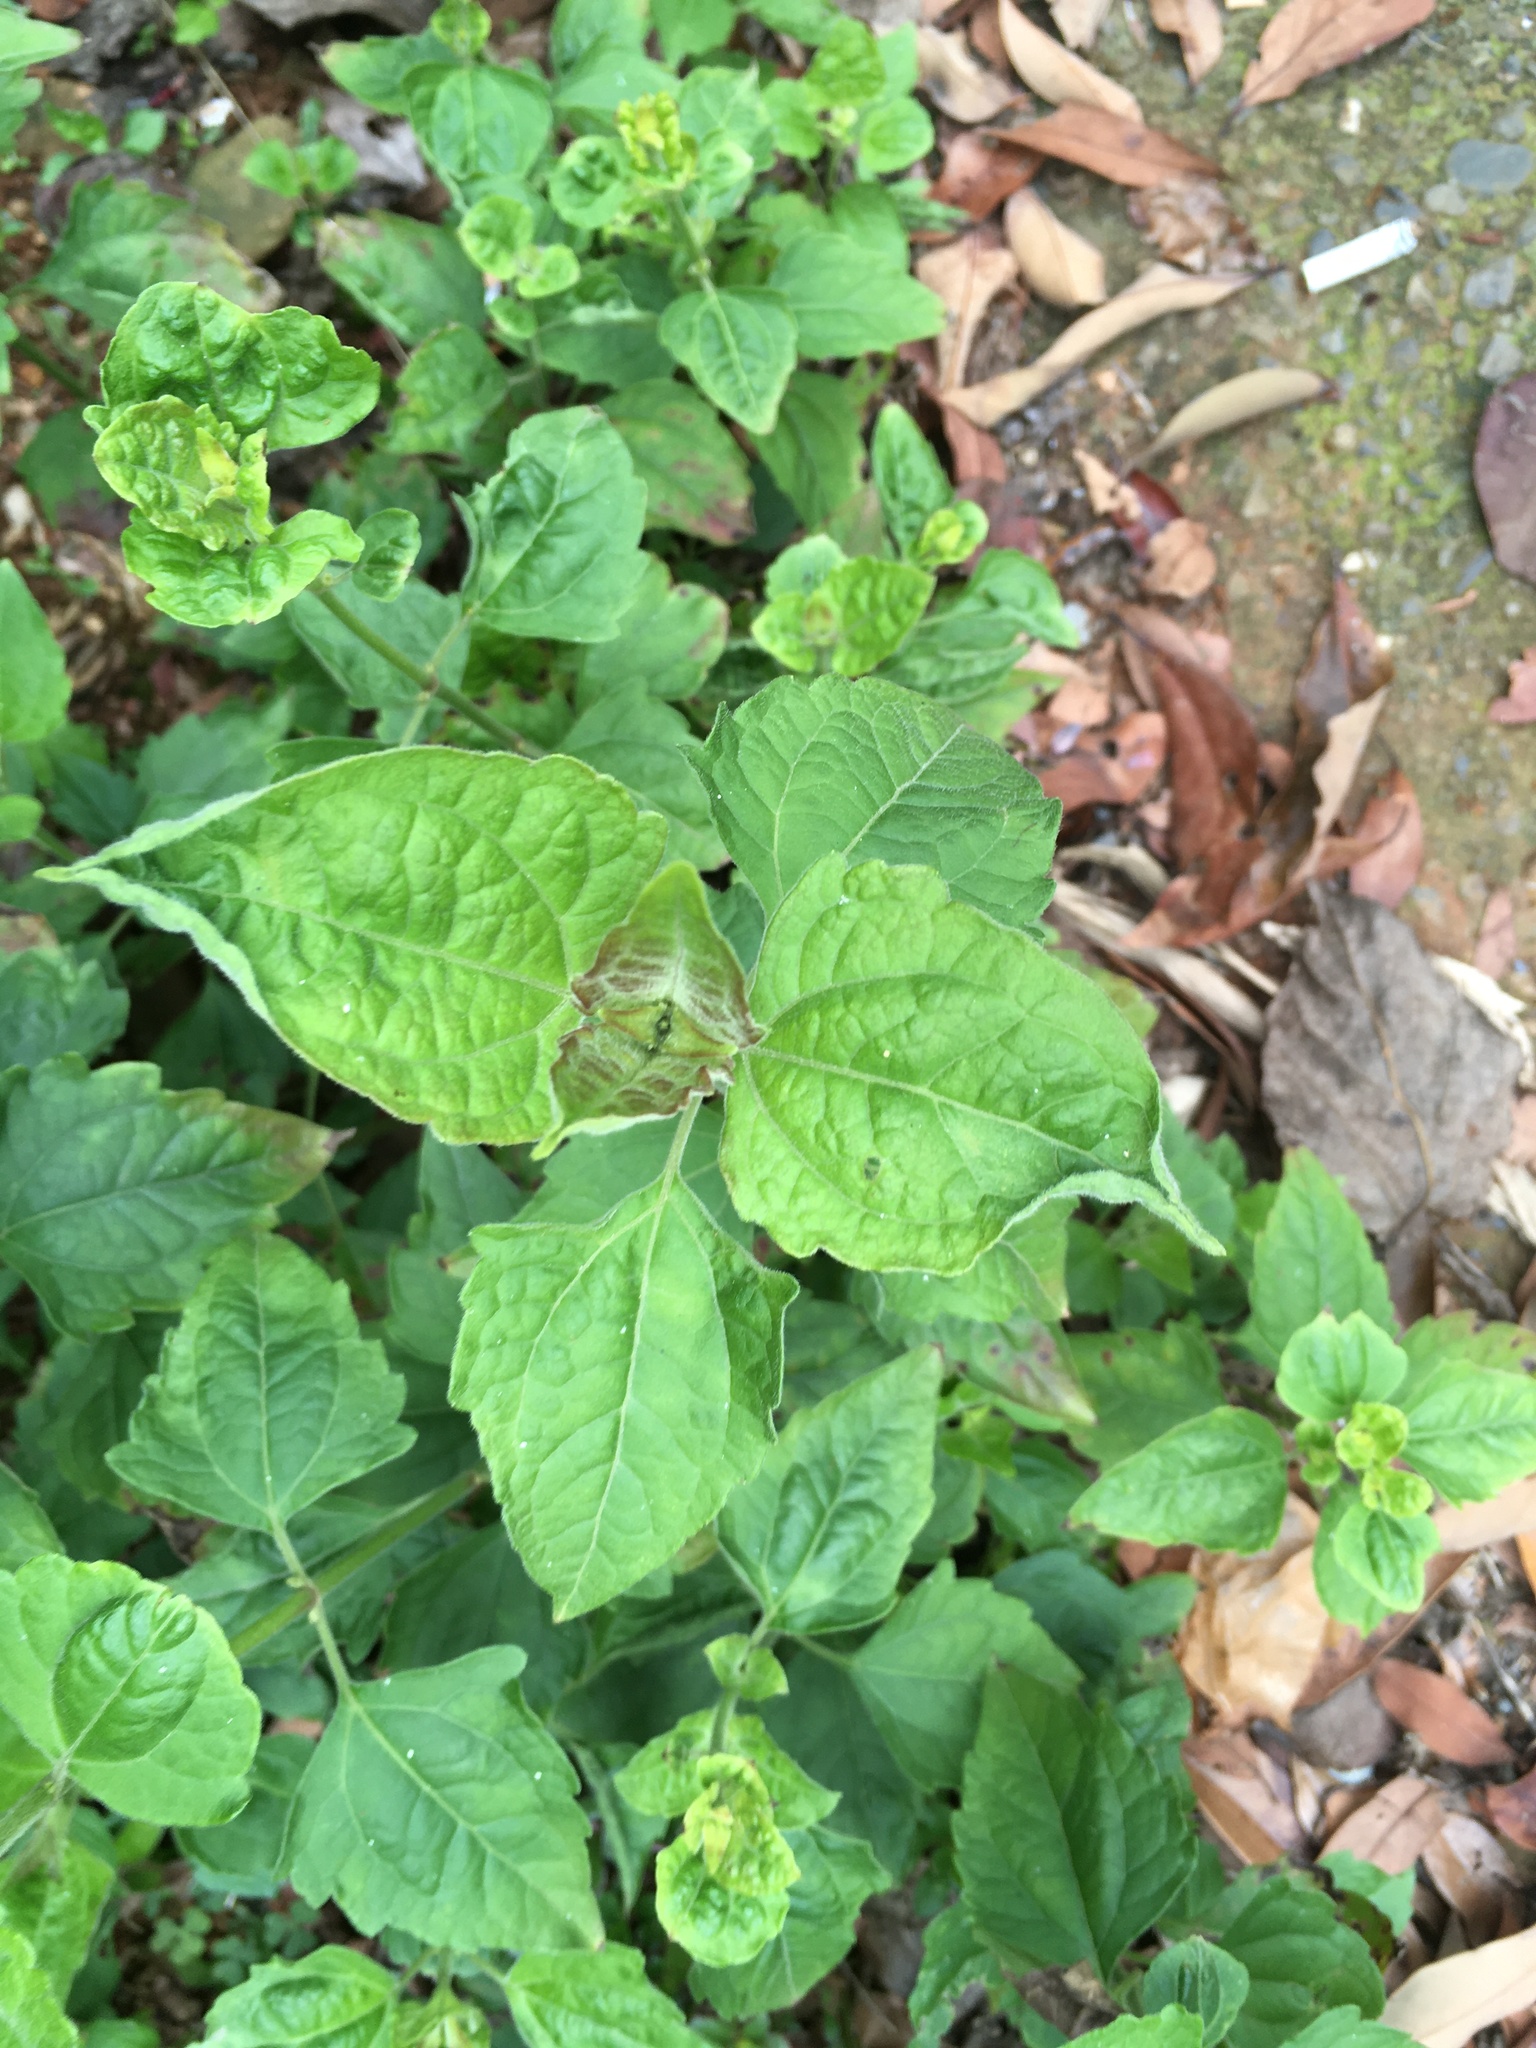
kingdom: Plantae
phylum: Tracheophyta
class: Magnoliopsida
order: Asterales
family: Asteraceae
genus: Chromolaena
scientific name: Chromolaena odorata
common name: Siamweed
